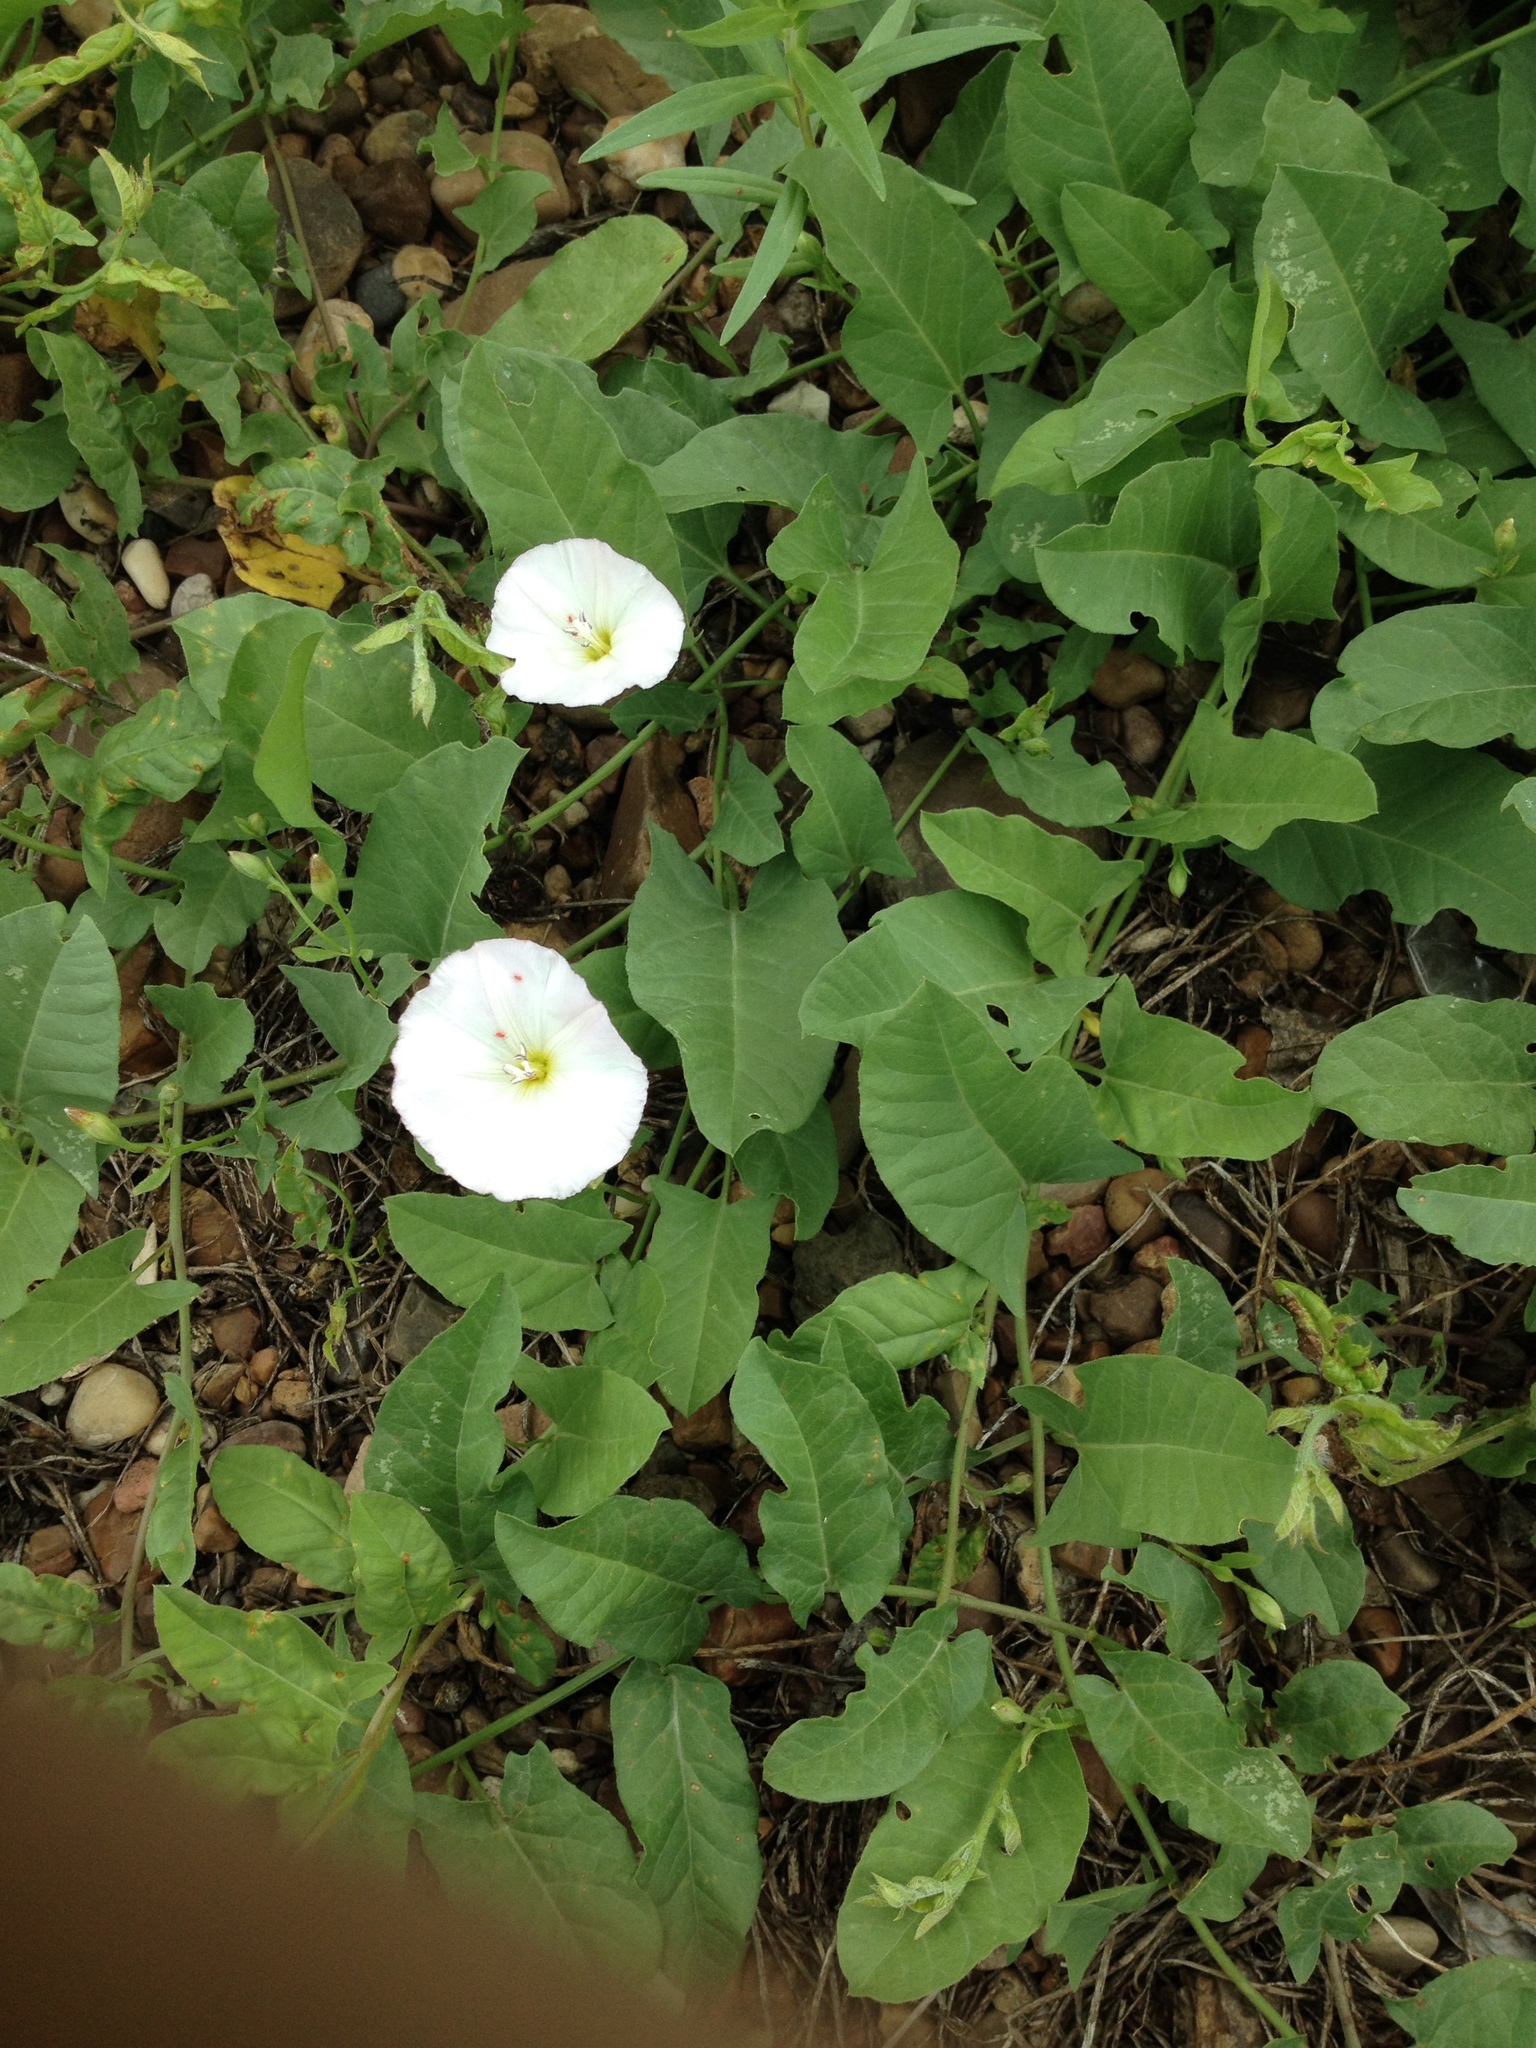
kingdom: Plantae
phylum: Tracheophyta
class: Magnoliopsida
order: Solanales
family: Convolvulaceae
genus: Convolvulus
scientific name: Convolvulus arvensis
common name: Field bindweed
